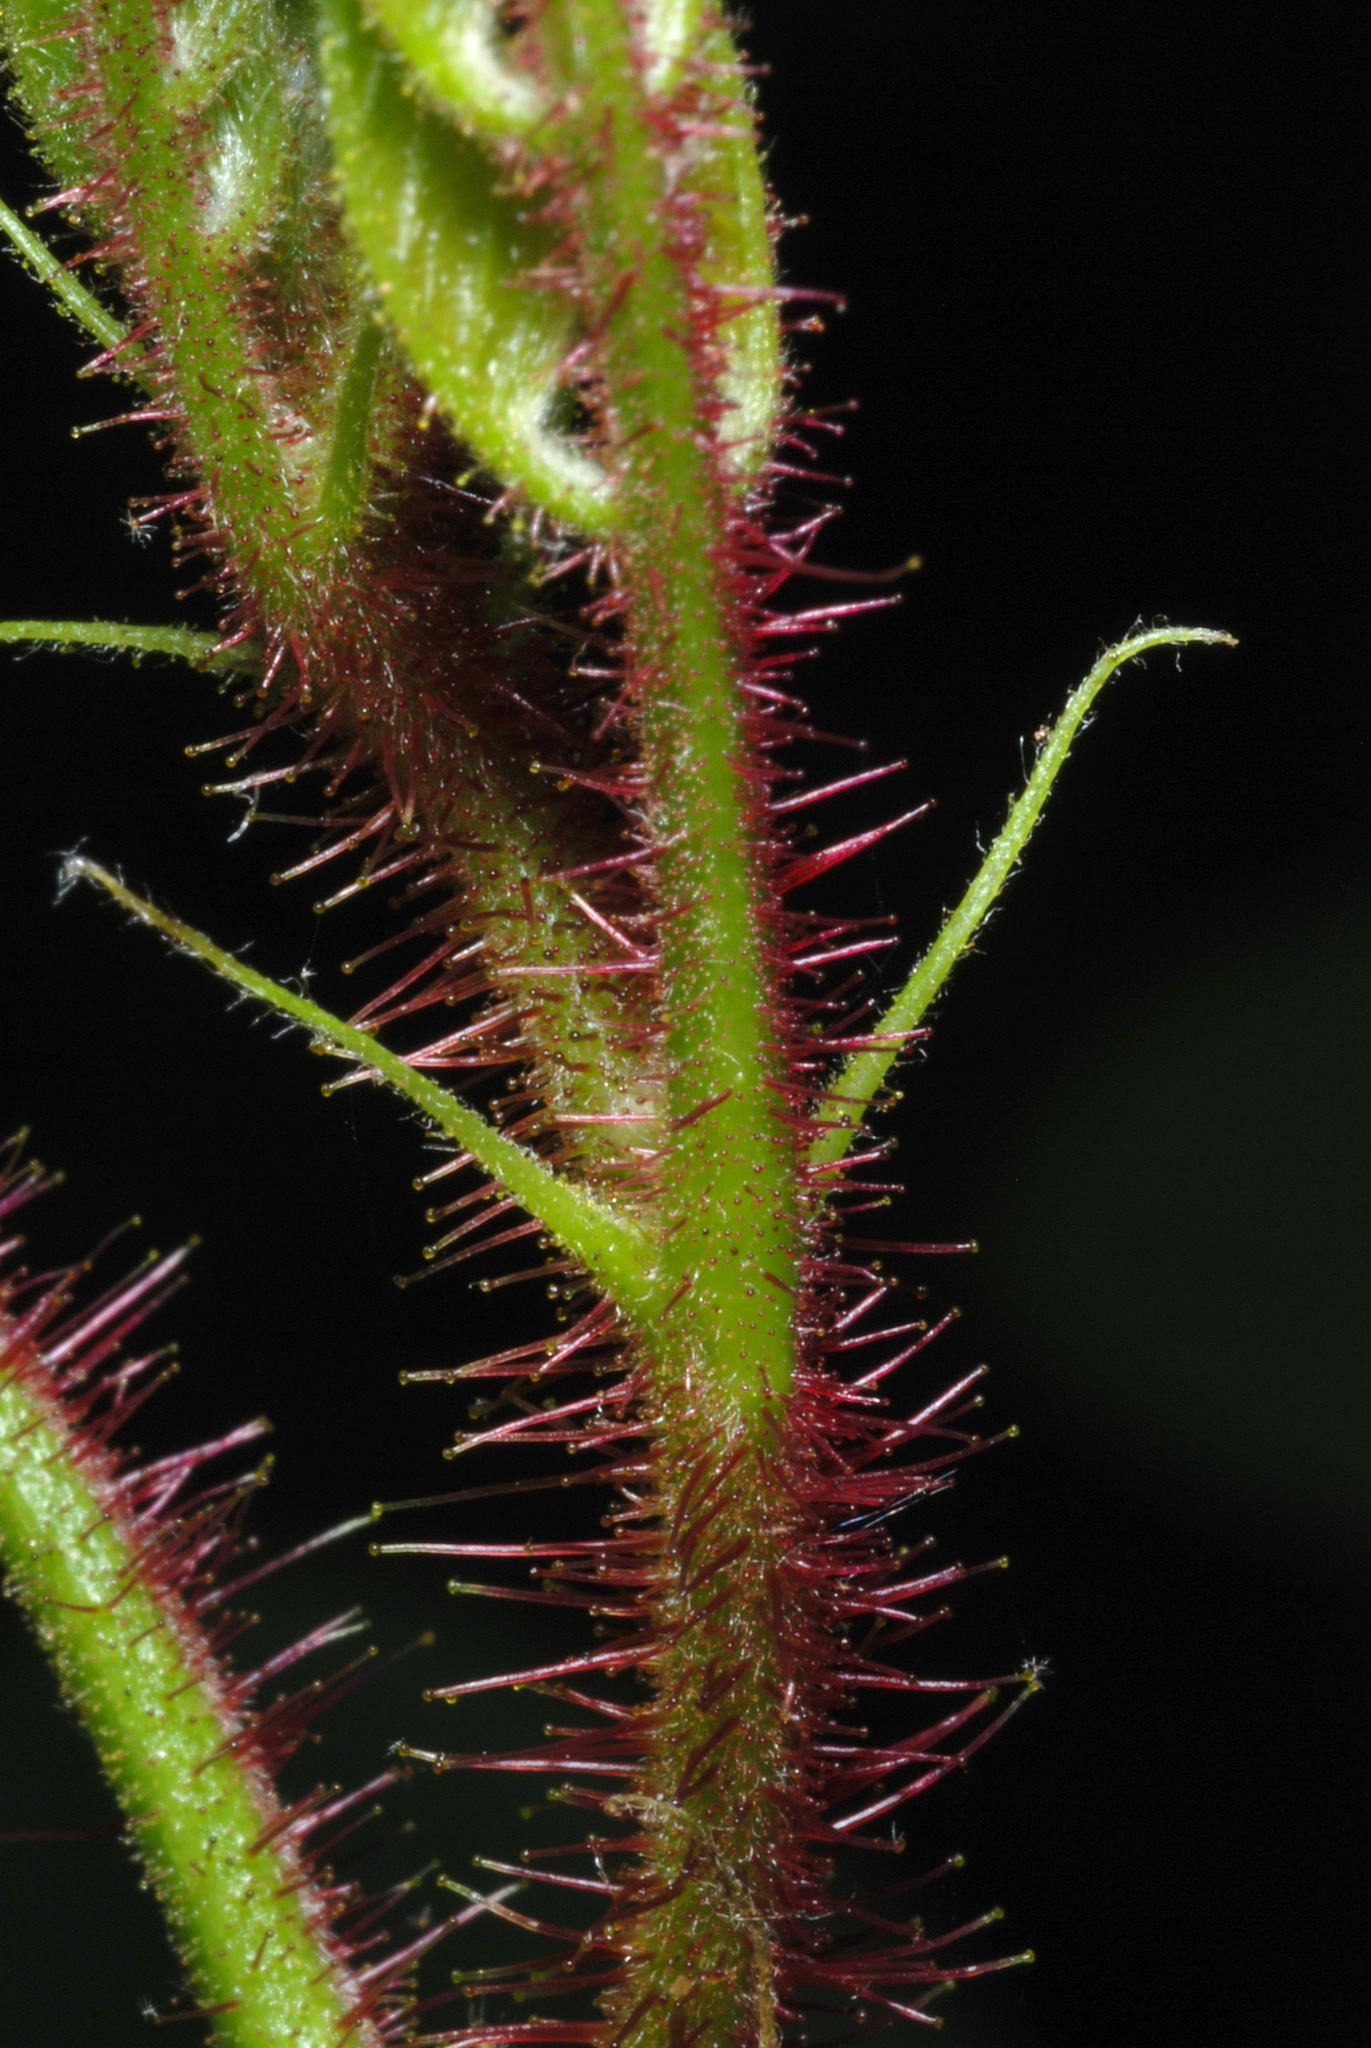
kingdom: Plantae
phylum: Tracheophyta
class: Magnoliopsida
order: Fabales
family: Fabaceae
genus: Robinia
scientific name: Robinia hispida
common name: Bristly locust
